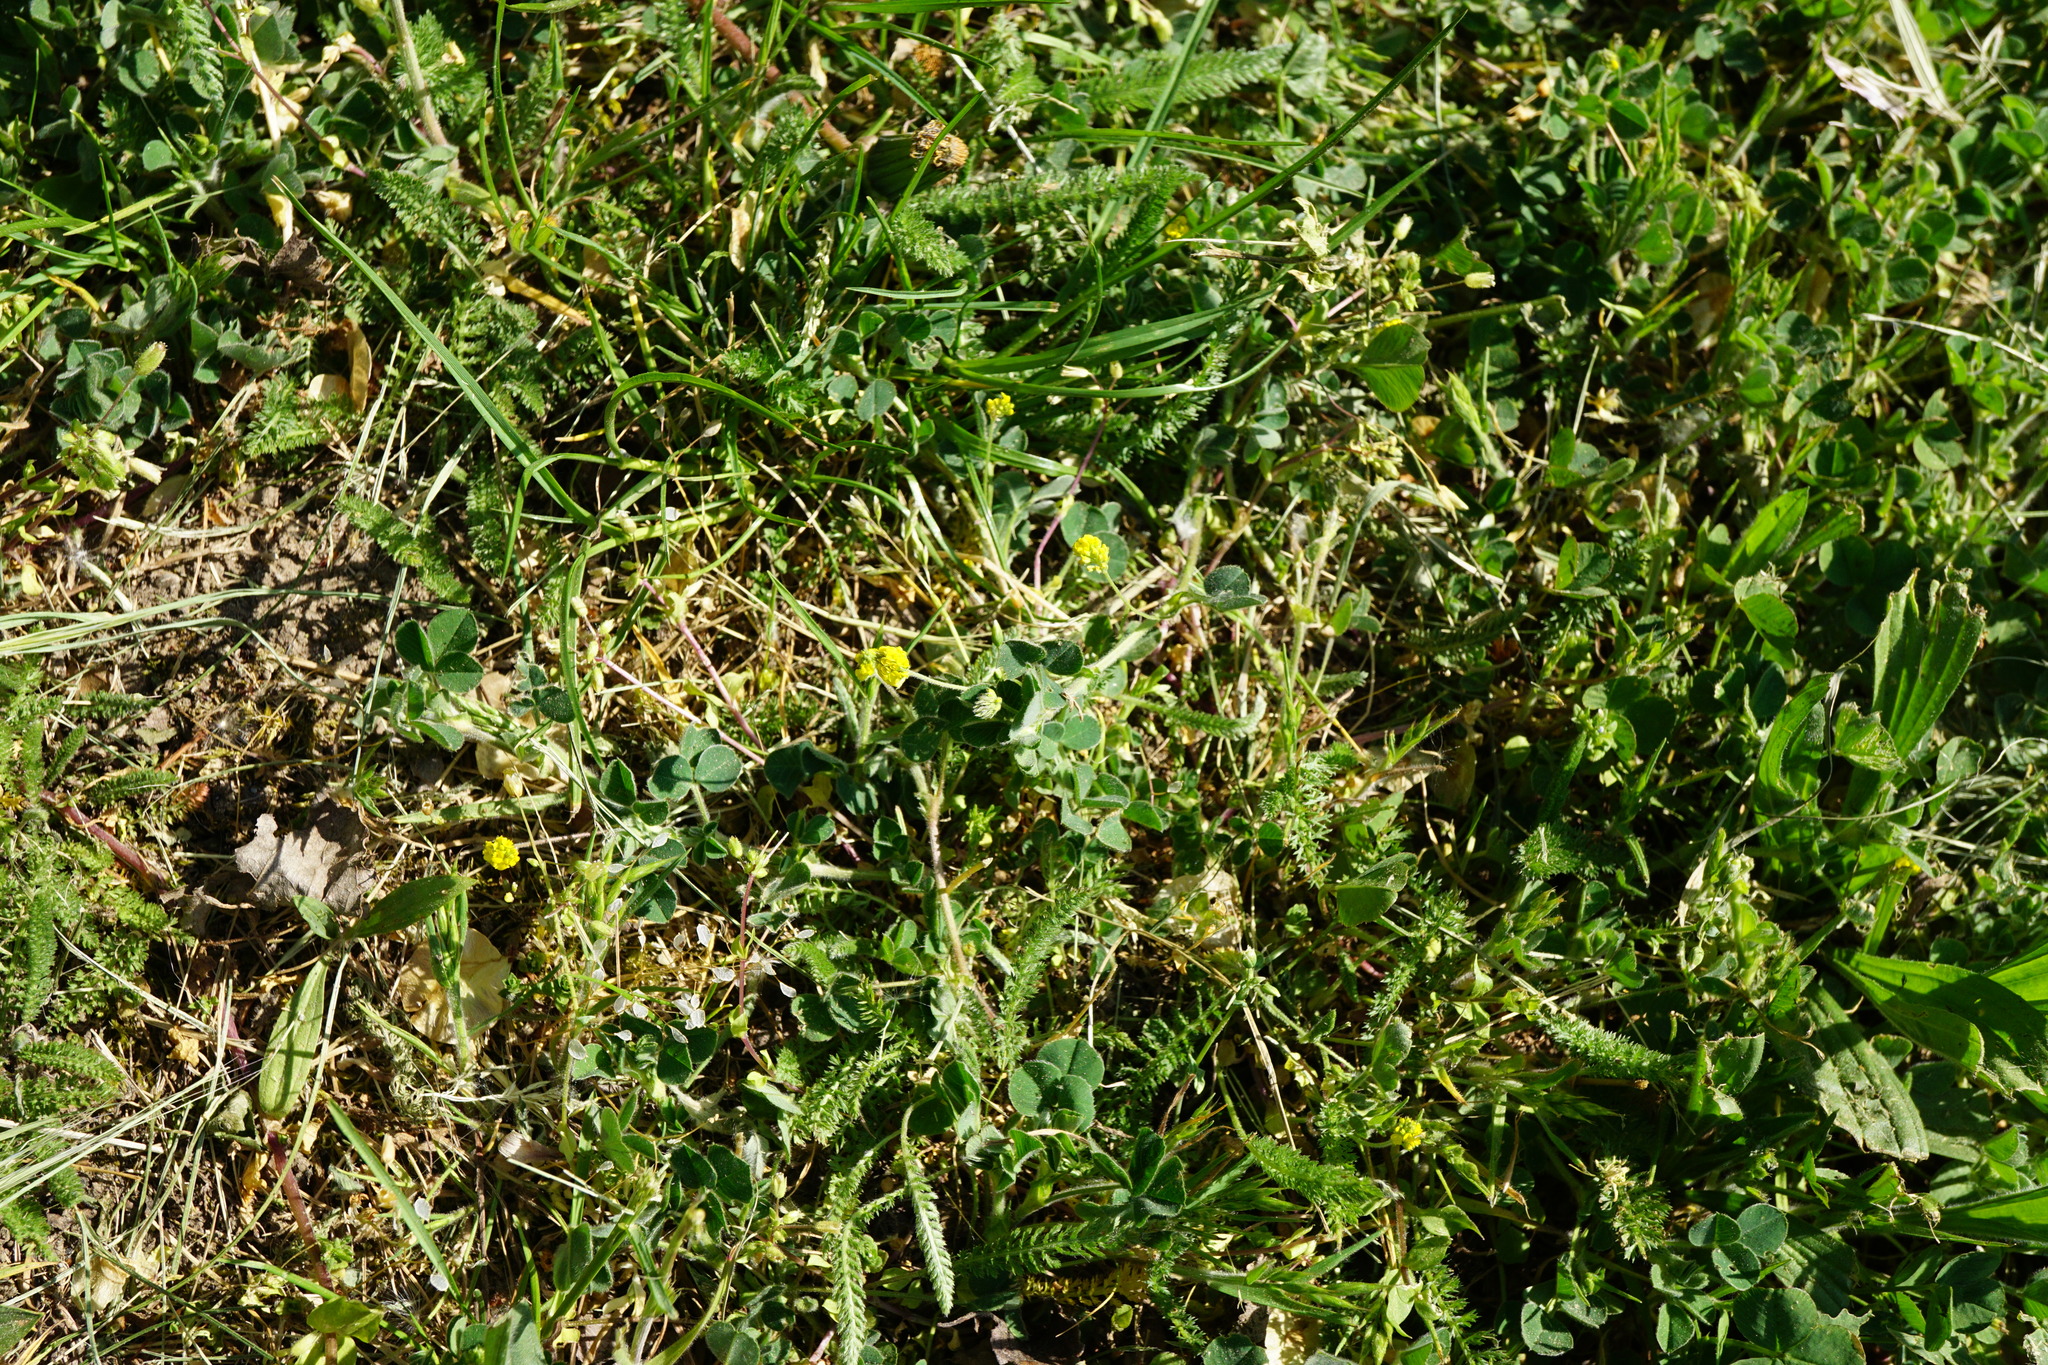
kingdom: Plantae
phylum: Tracheophyta
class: Magnoliopsida
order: Fabales
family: Fabaceae
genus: Medicago
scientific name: Medicago lupulina
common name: Black medick
